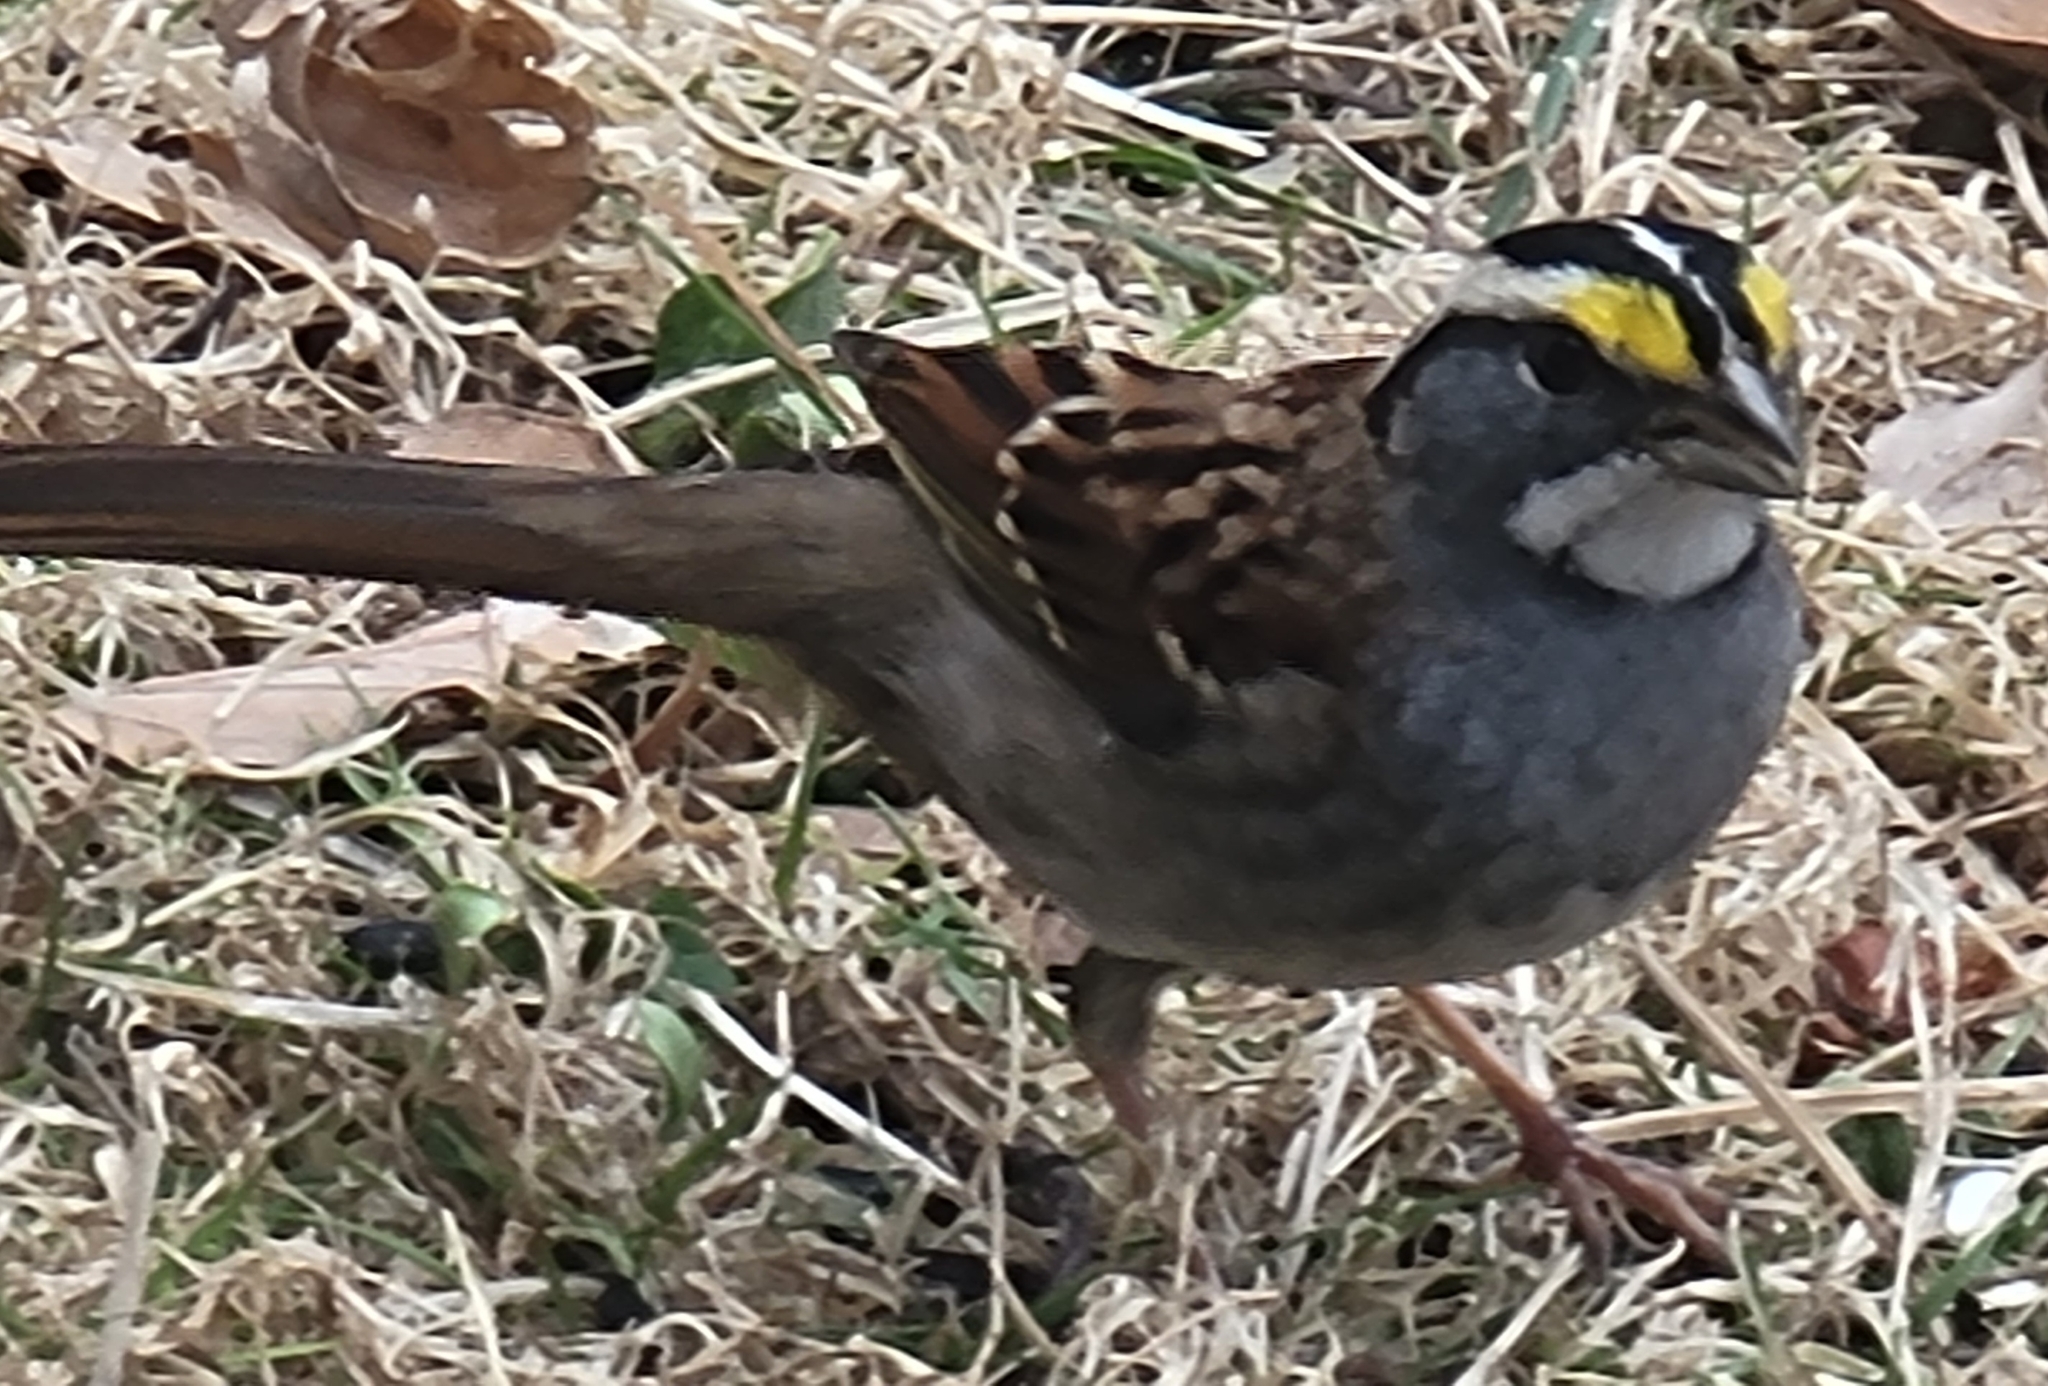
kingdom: Animalia
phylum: Chordata
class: Aves
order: Passeriformes
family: Passerellidae
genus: Zonotrichia
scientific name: Zonotrichia albicollis
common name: White-throated sparrow
